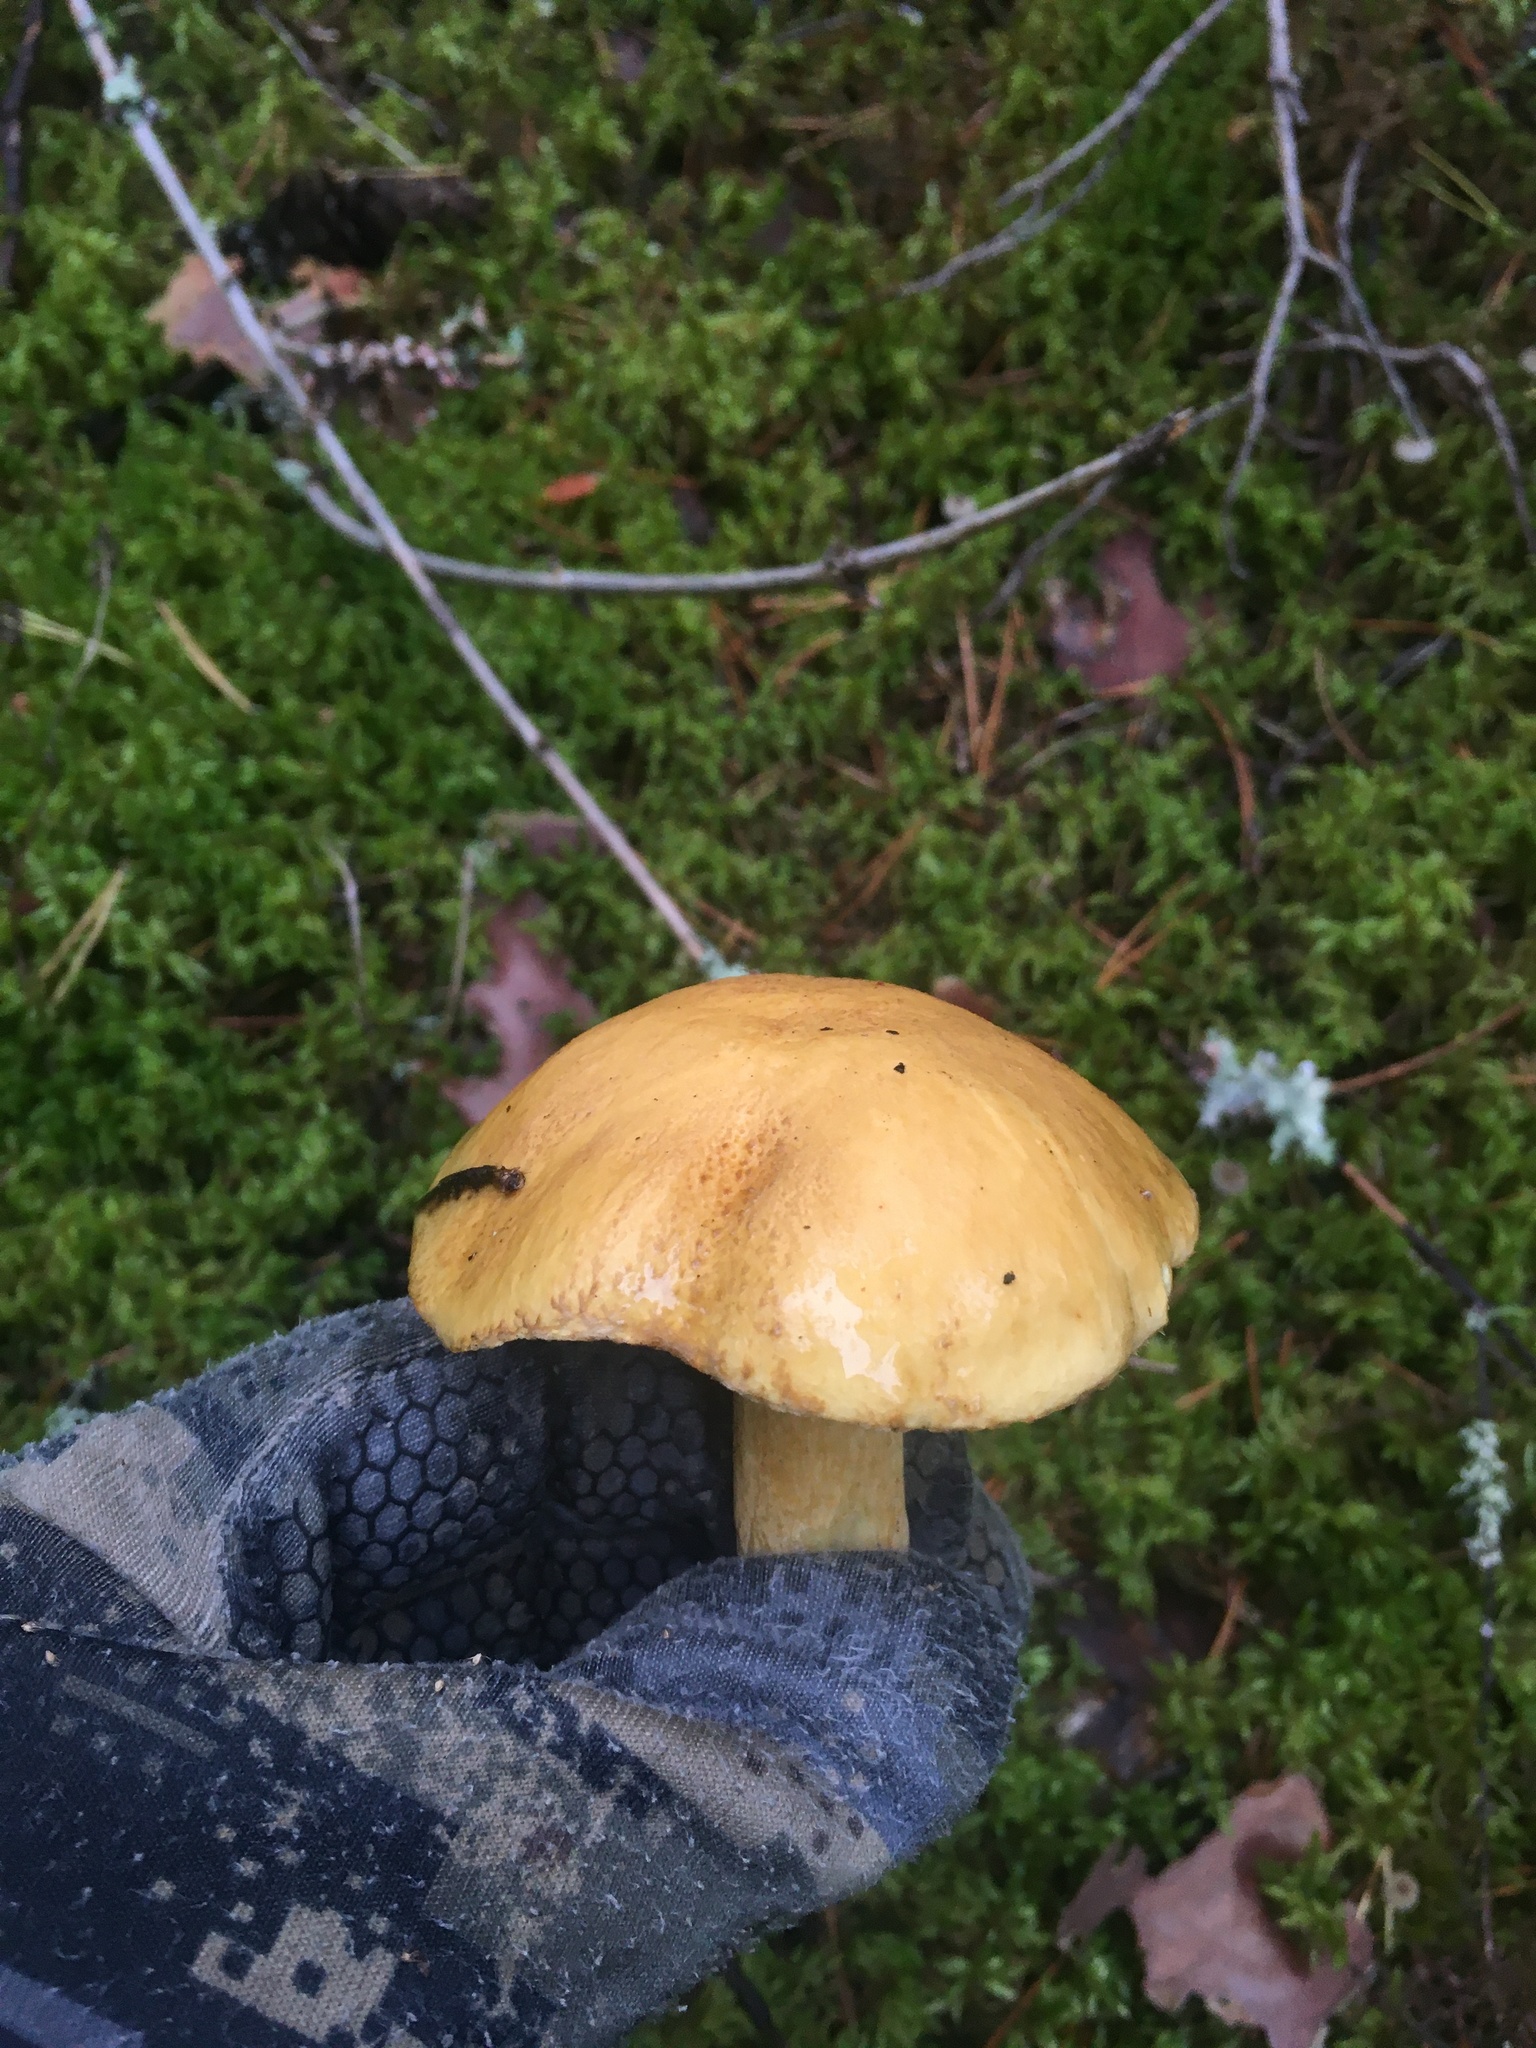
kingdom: Fungi
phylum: Basidiomycota
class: Agaricomycetes
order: Boletales
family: Suillaceae
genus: Suillus
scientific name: Suillus variegatus
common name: Velvet bolete
